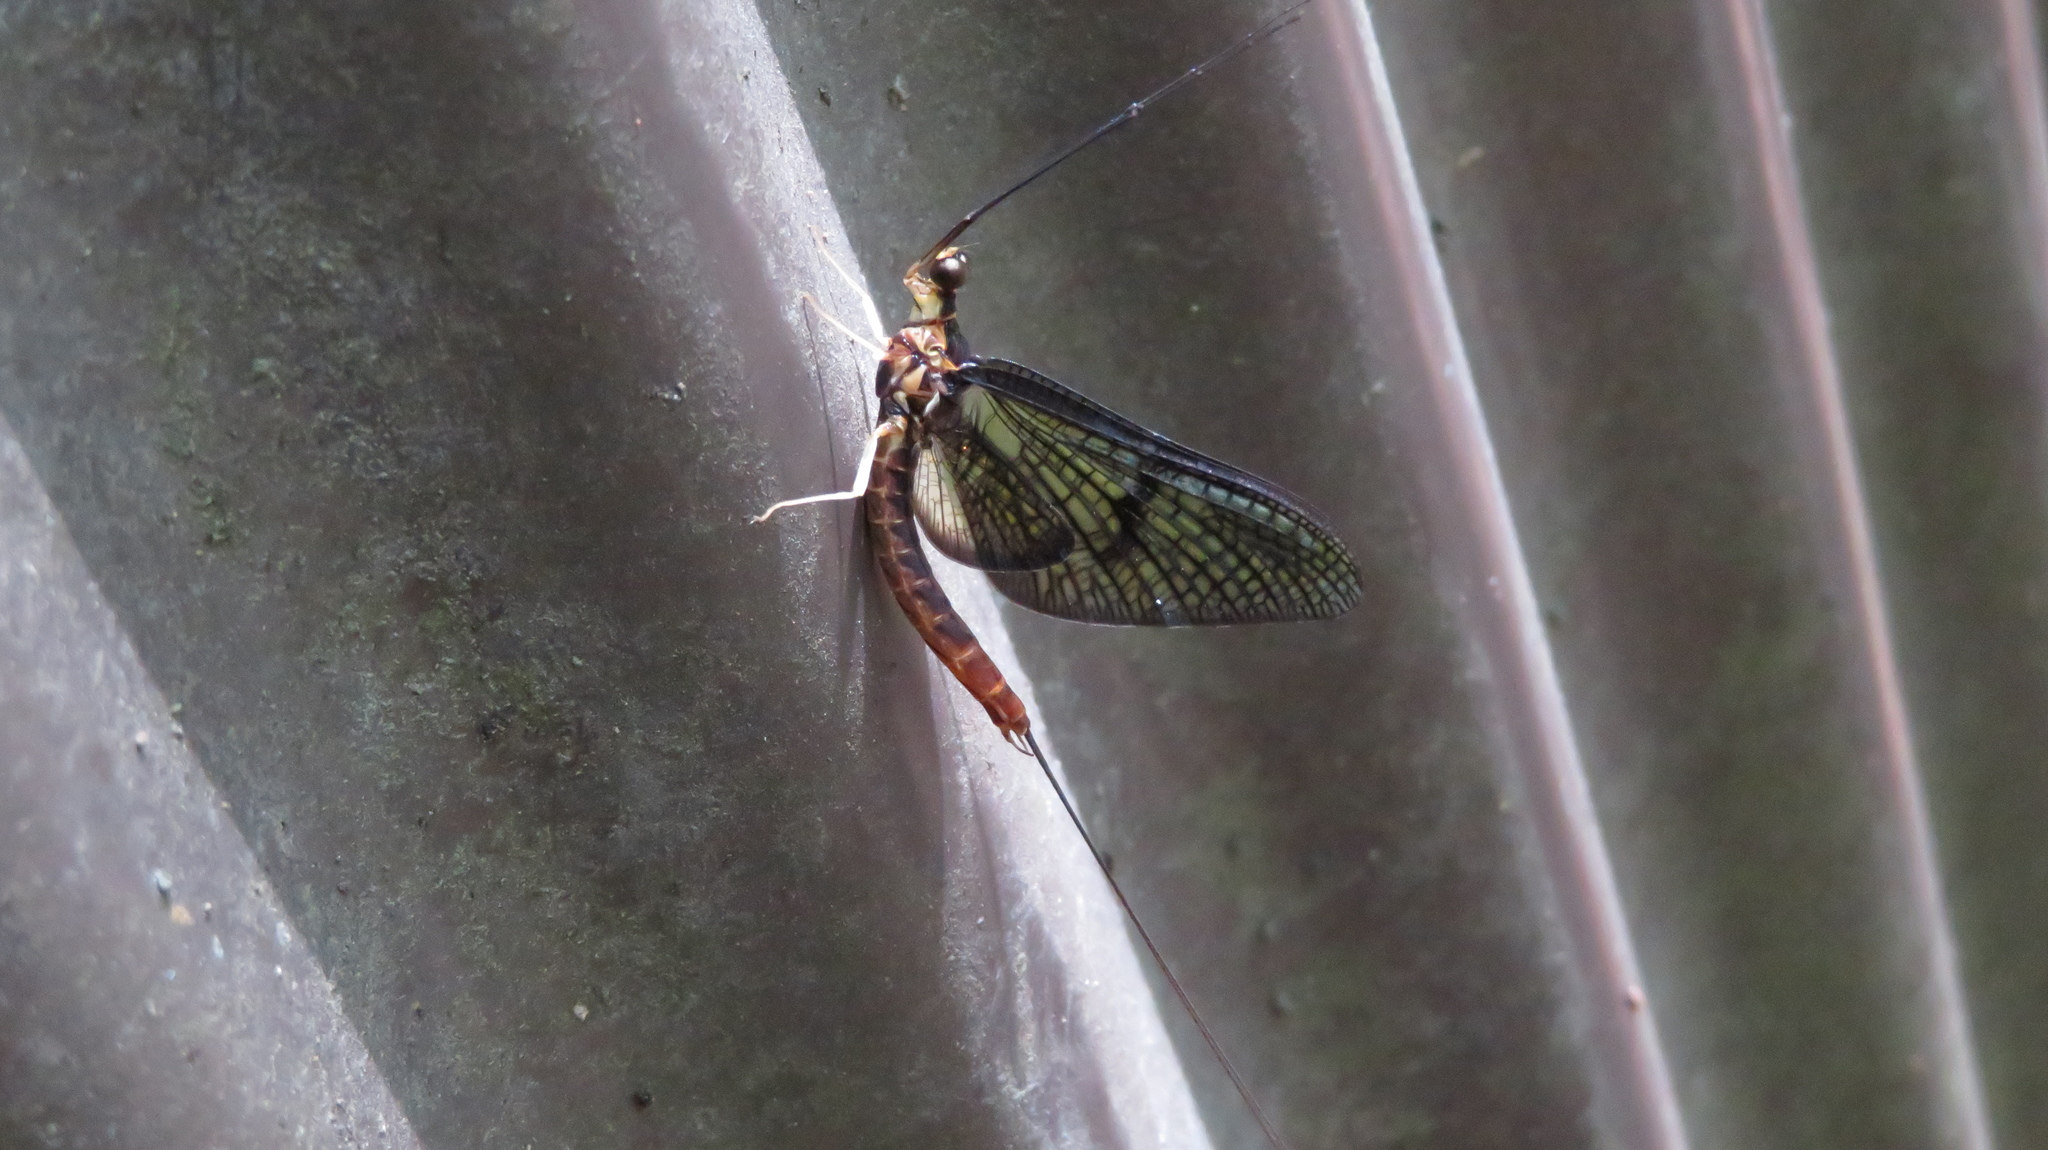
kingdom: Animalia
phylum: Arthropoda
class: Insecta
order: Ephemeroptera
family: Ephemeridae
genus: Ephemera
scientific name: Ephemera strigata
